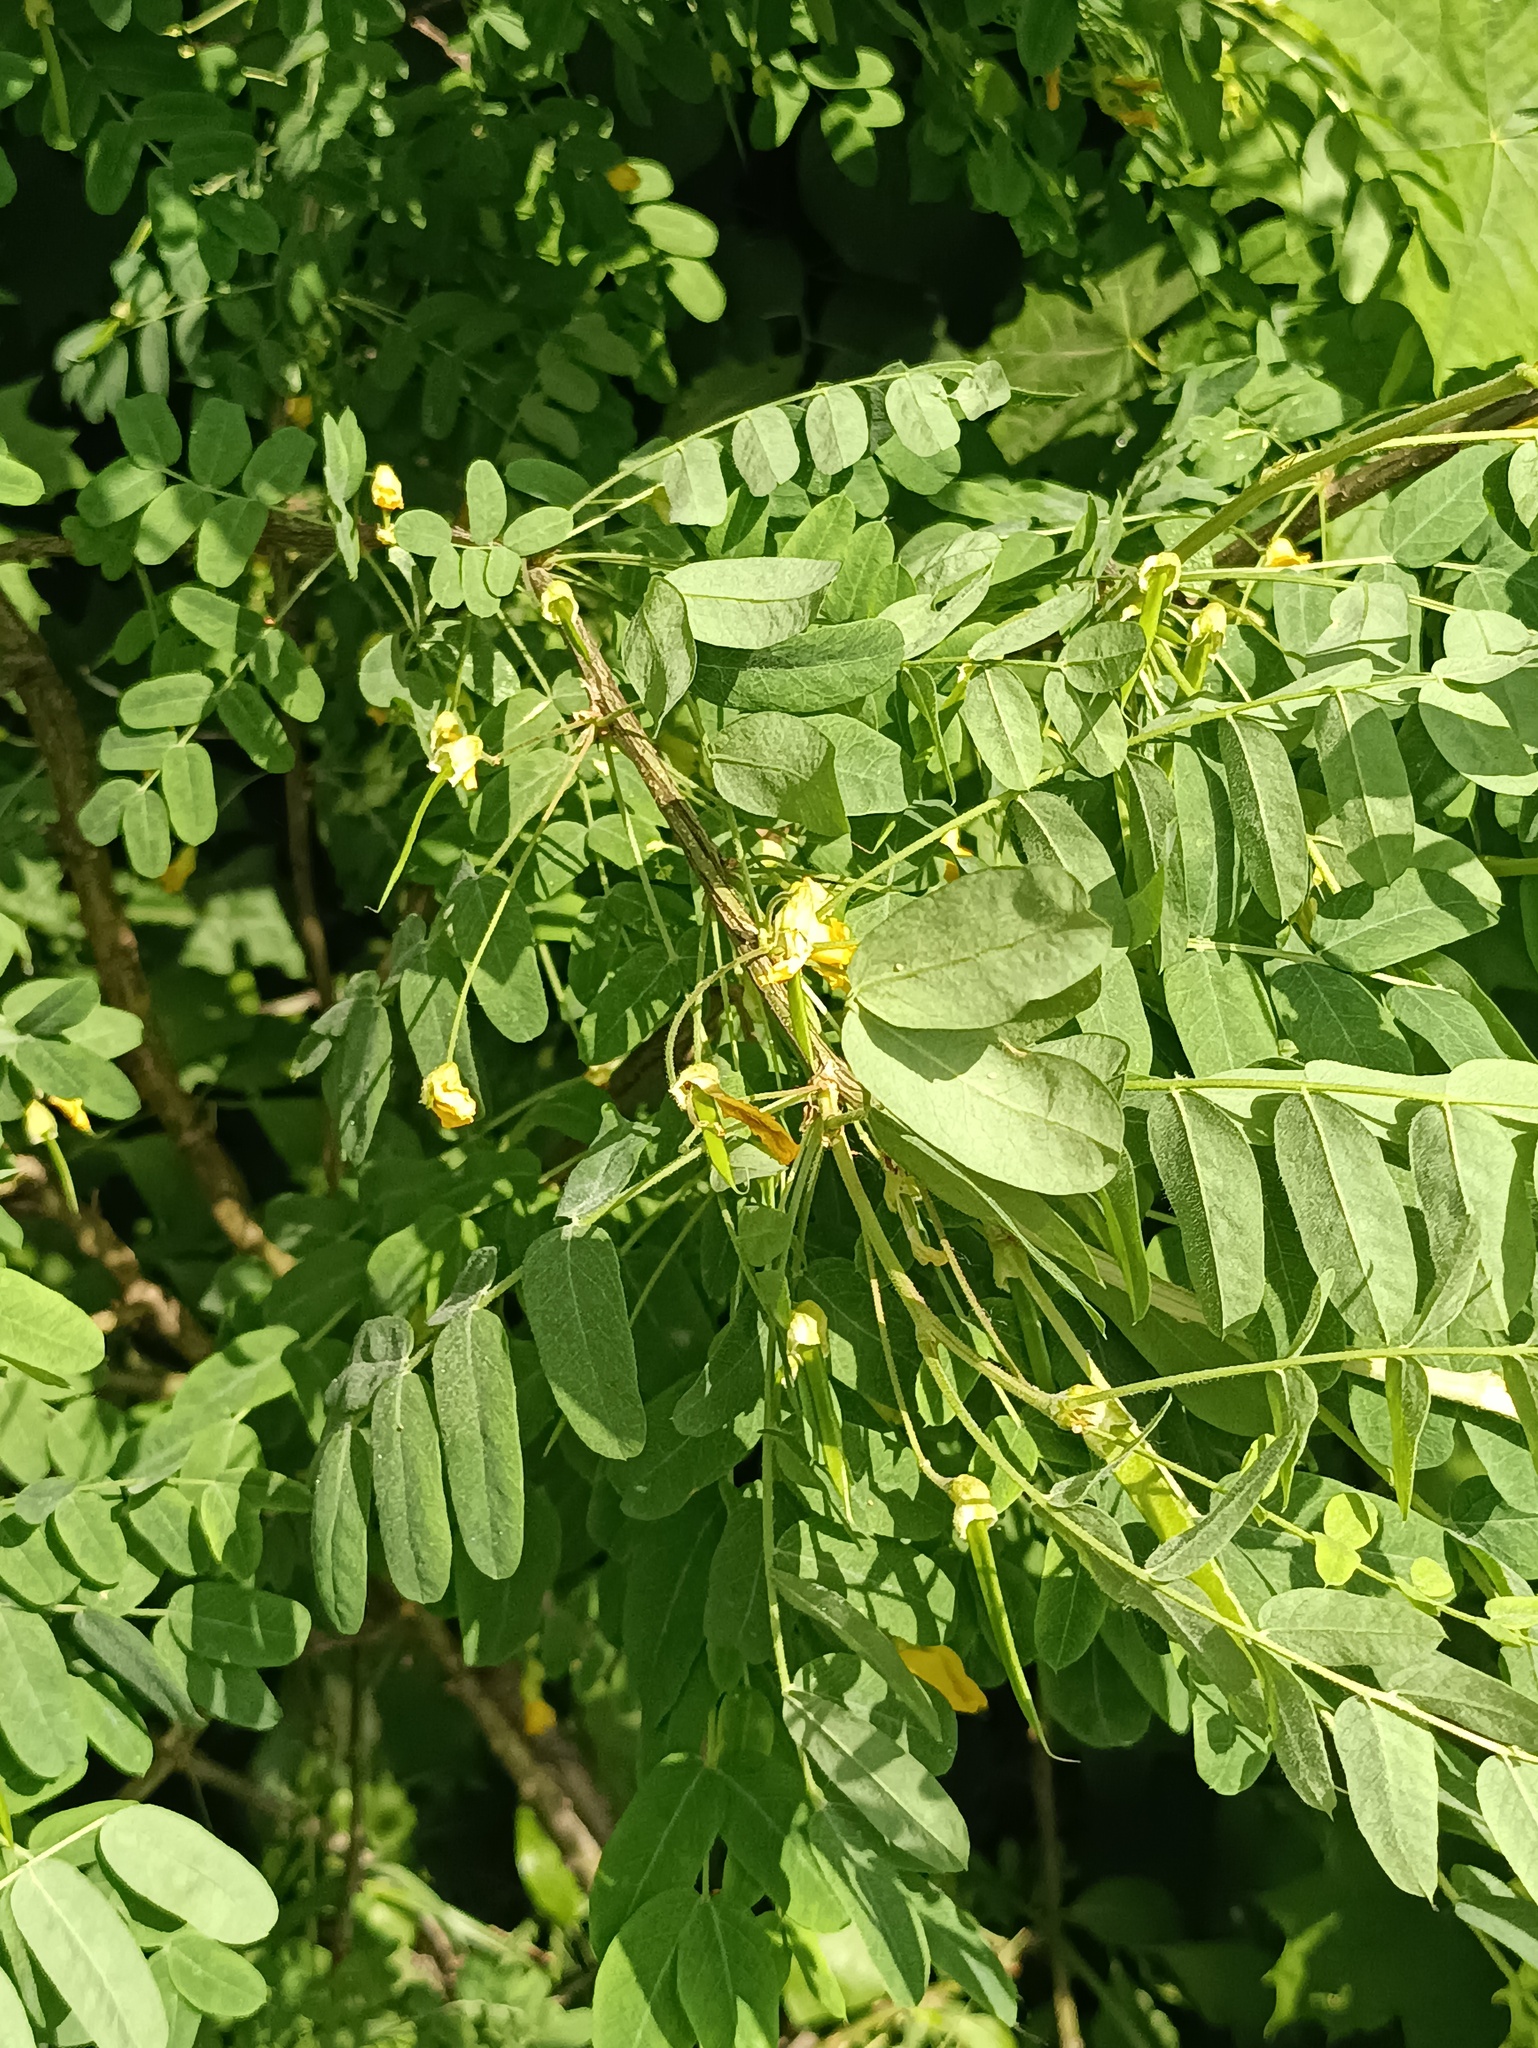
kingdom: Plantae
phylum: Tracheophyta
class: Magnoliopsida
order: Fabales
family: Fabaceae
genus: Caragana
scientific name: Caragana arborescens
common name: Siberian peashrub
